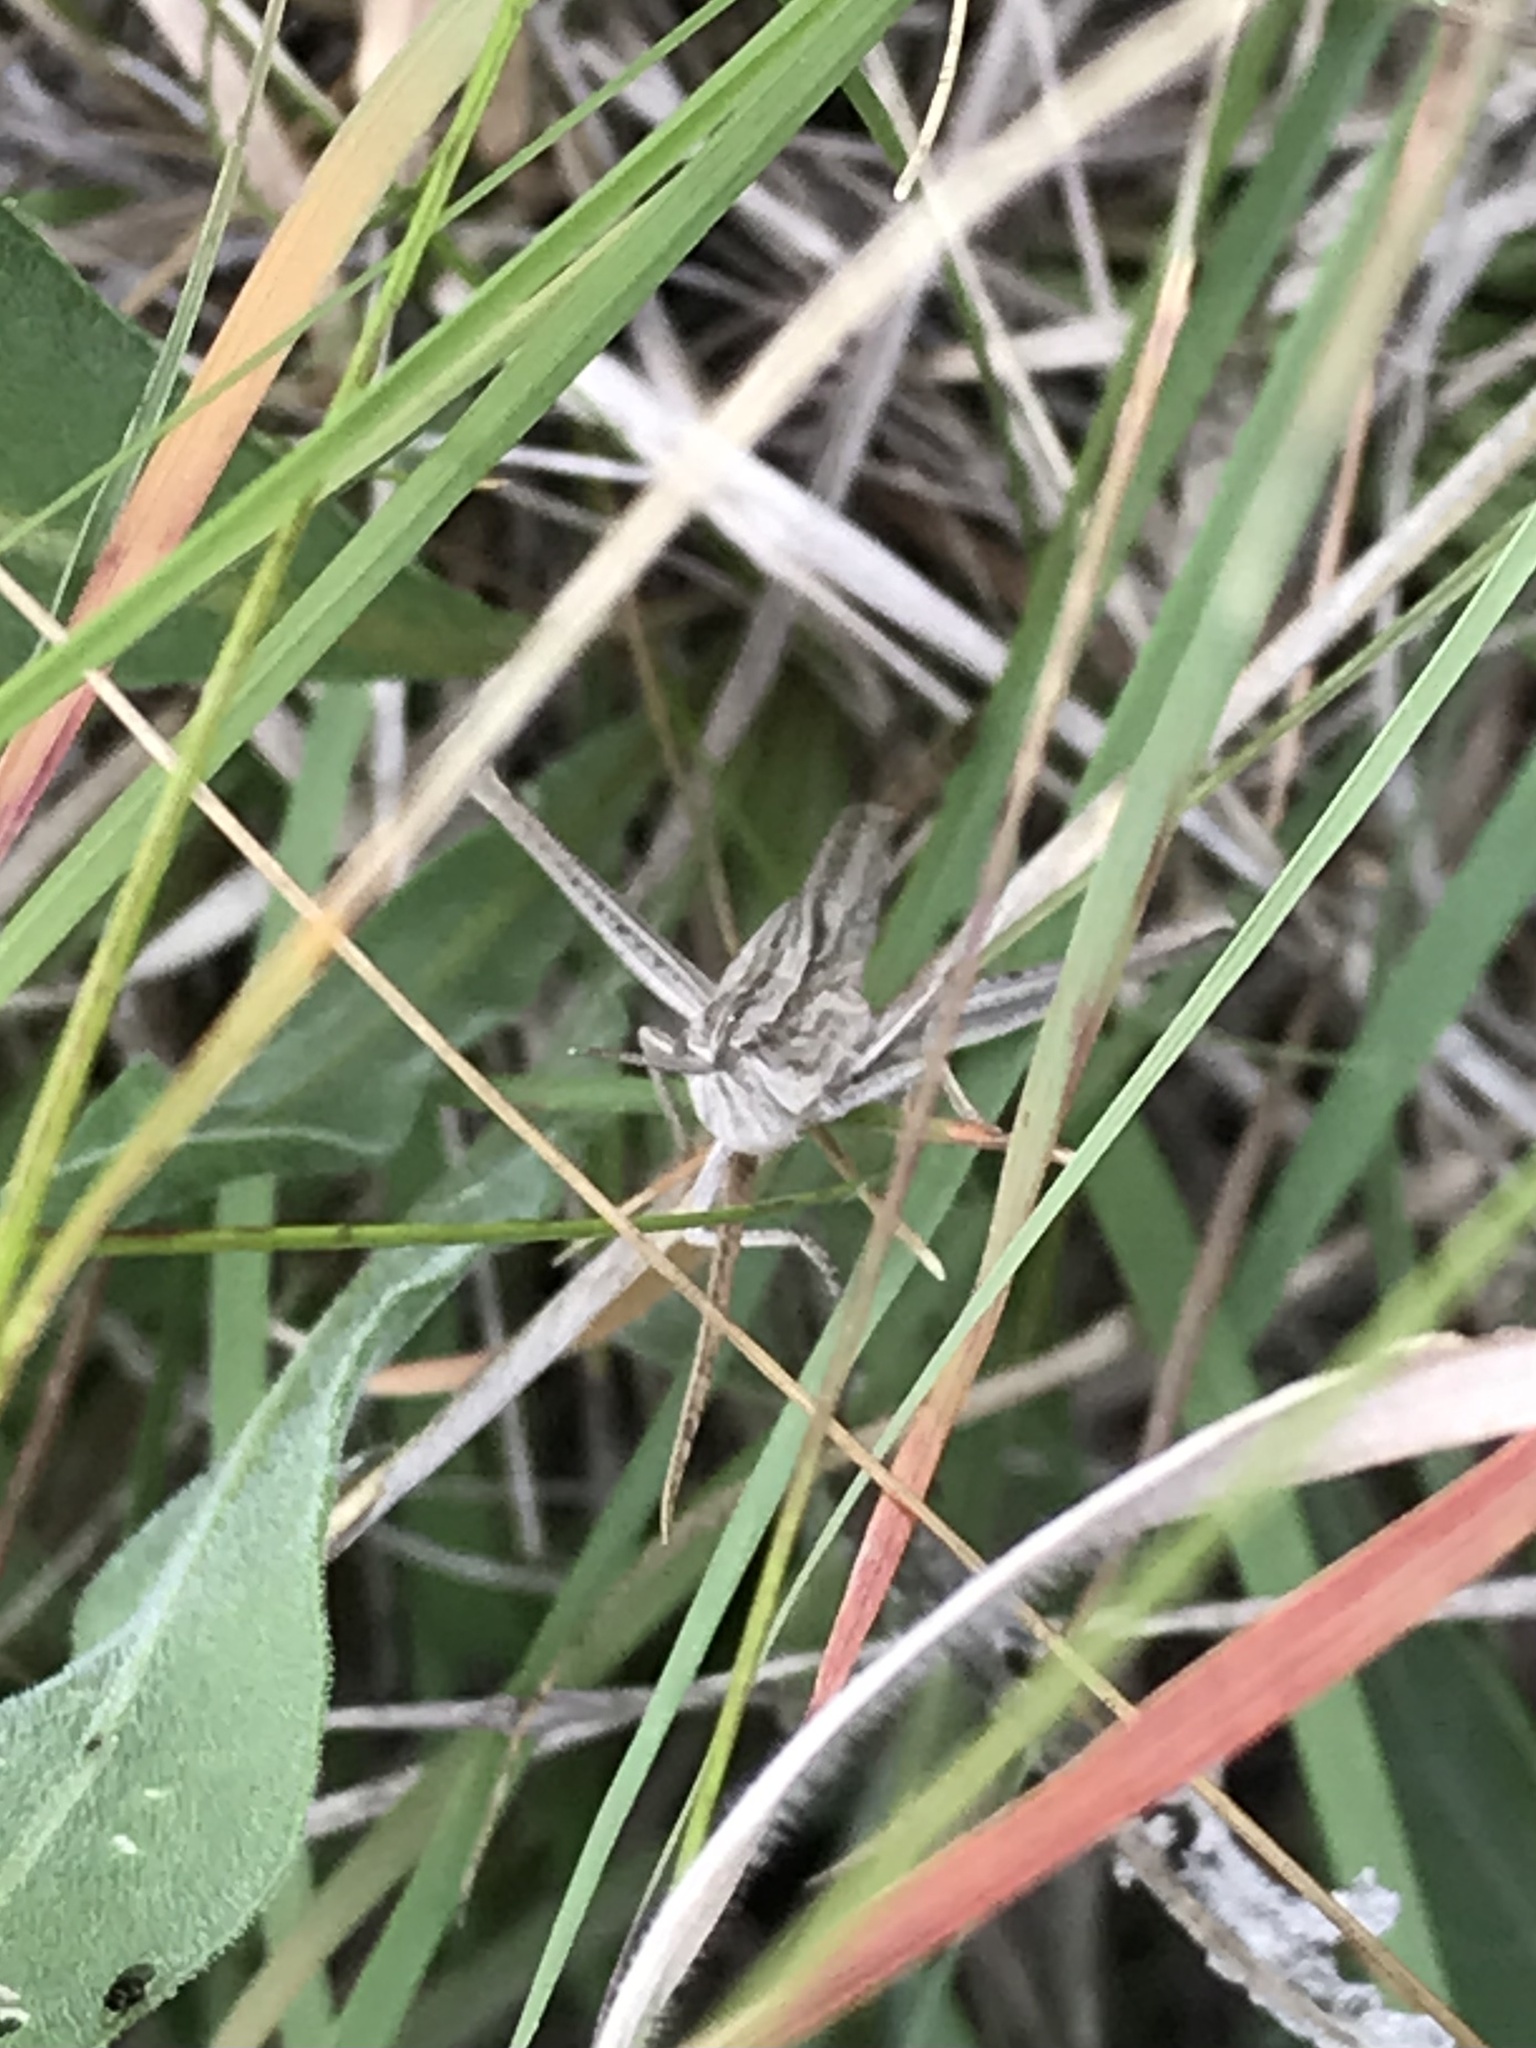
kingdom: Animalia
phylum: Arthropoda
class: Insecta
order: Orthoptera
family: Acrididae
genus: Pseudopomala
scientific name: Pseudopomala brachyptera
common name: Bunchgrass grasshopper
